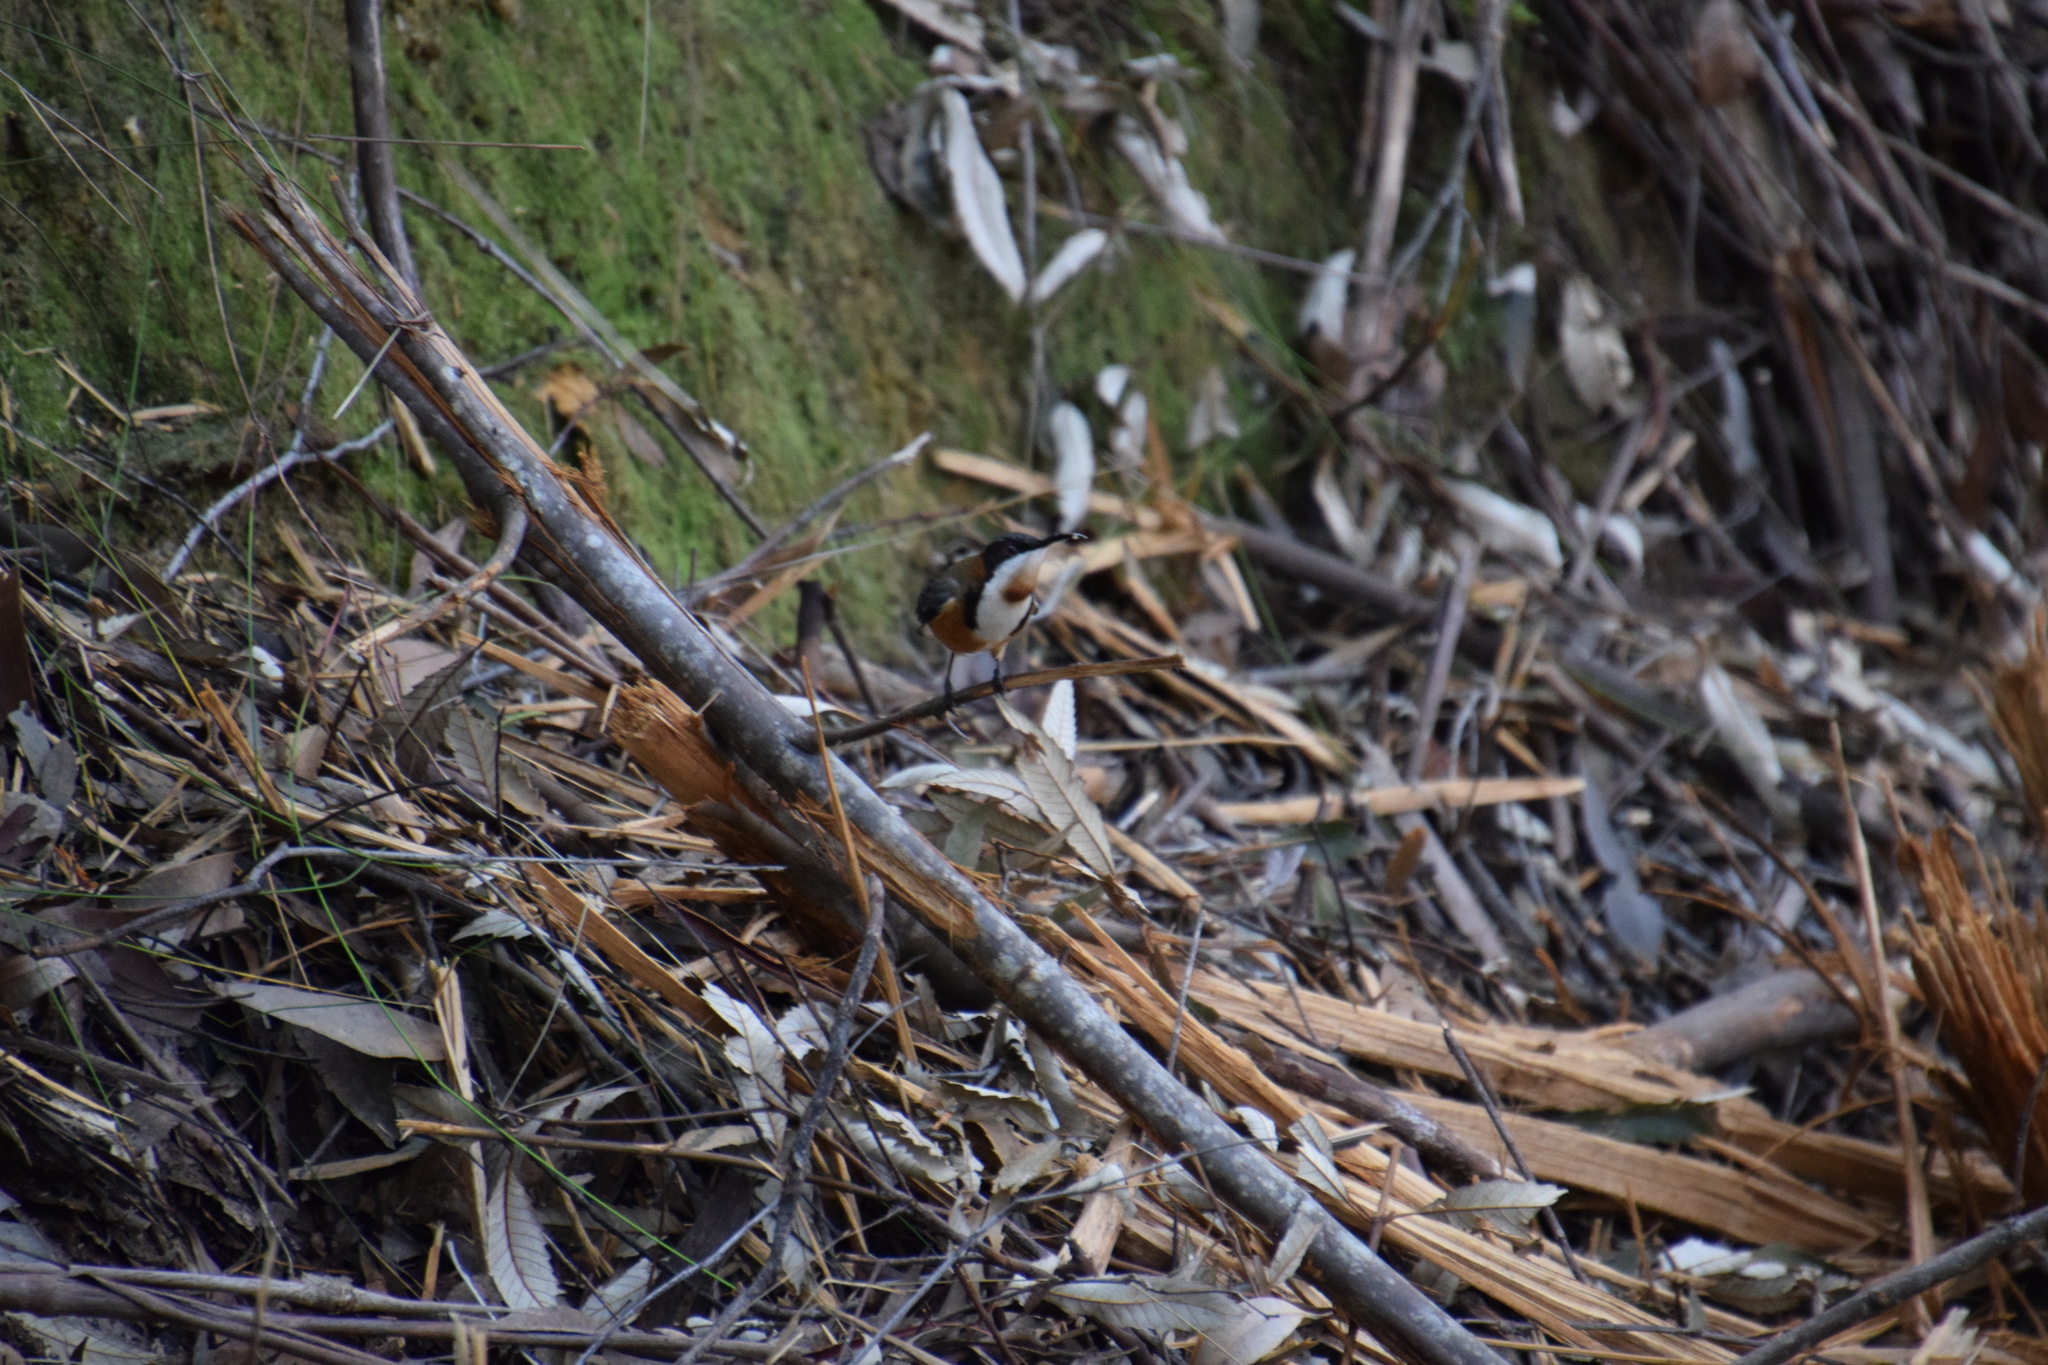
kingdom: Animalia
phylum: Chordata
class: Aves
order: Passeriformes
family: Meliphagidae
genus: Acanthorhynchus
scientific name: Acanthorhynchus tenuirostris
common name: Eastern spinebill
